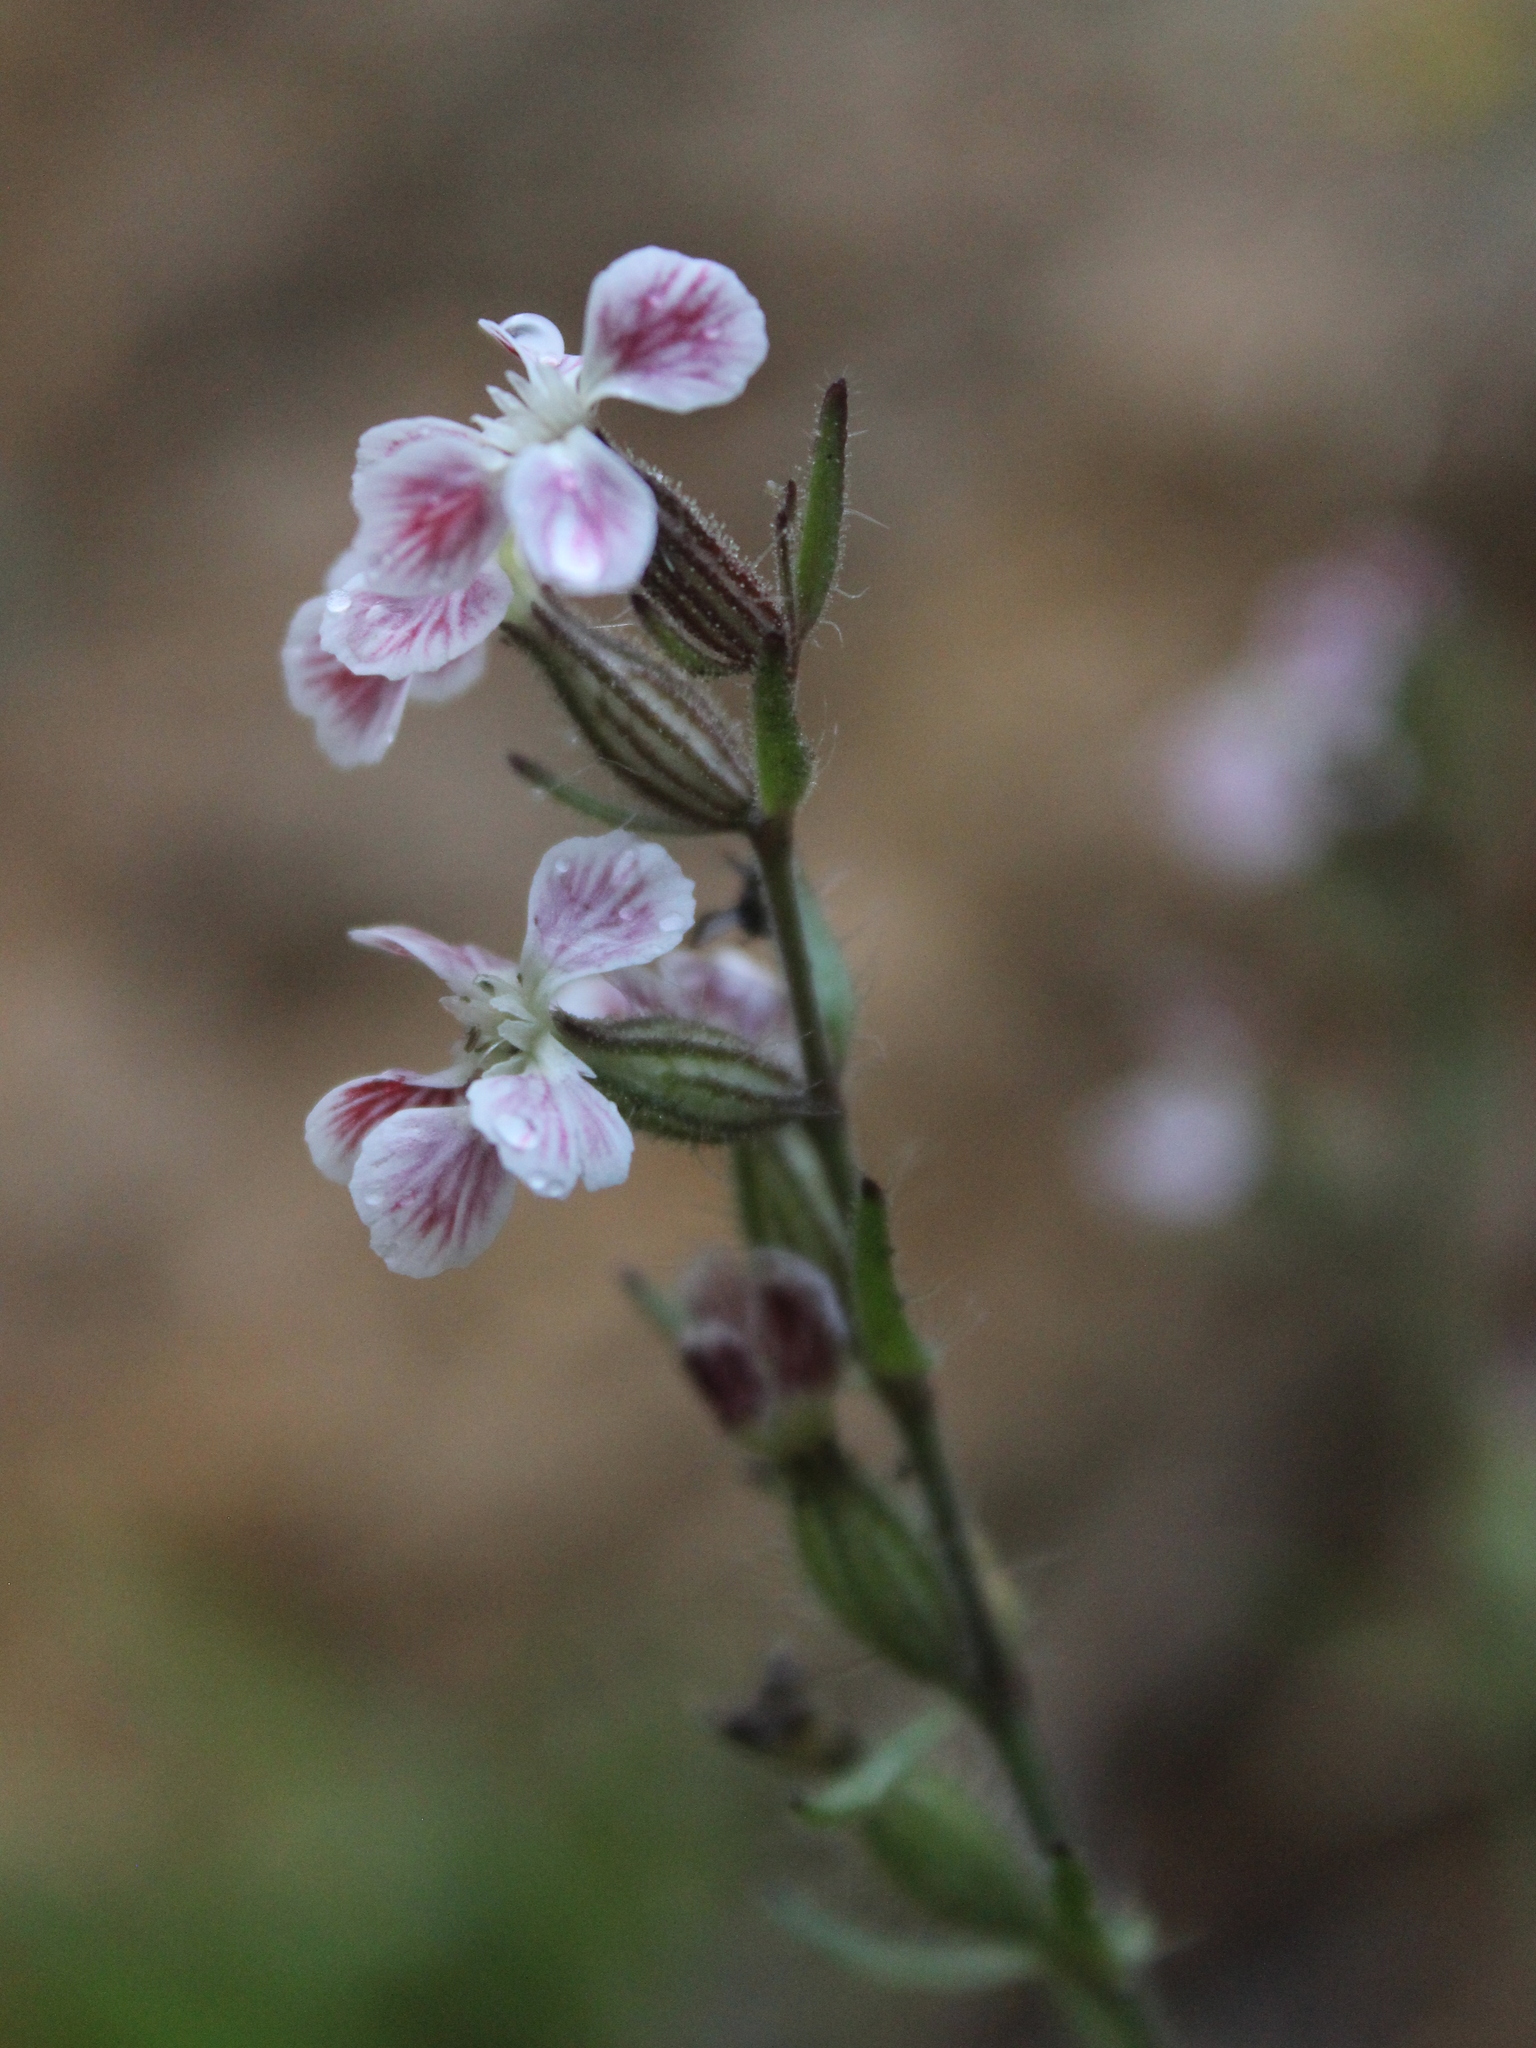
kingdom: Plantae
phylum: Tracheophyta
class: Magnoliopsida
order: Caryophyllales
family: Caryophyllaceae
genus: Silene
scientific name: Silene gallica
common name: Small-flowered catchfly
